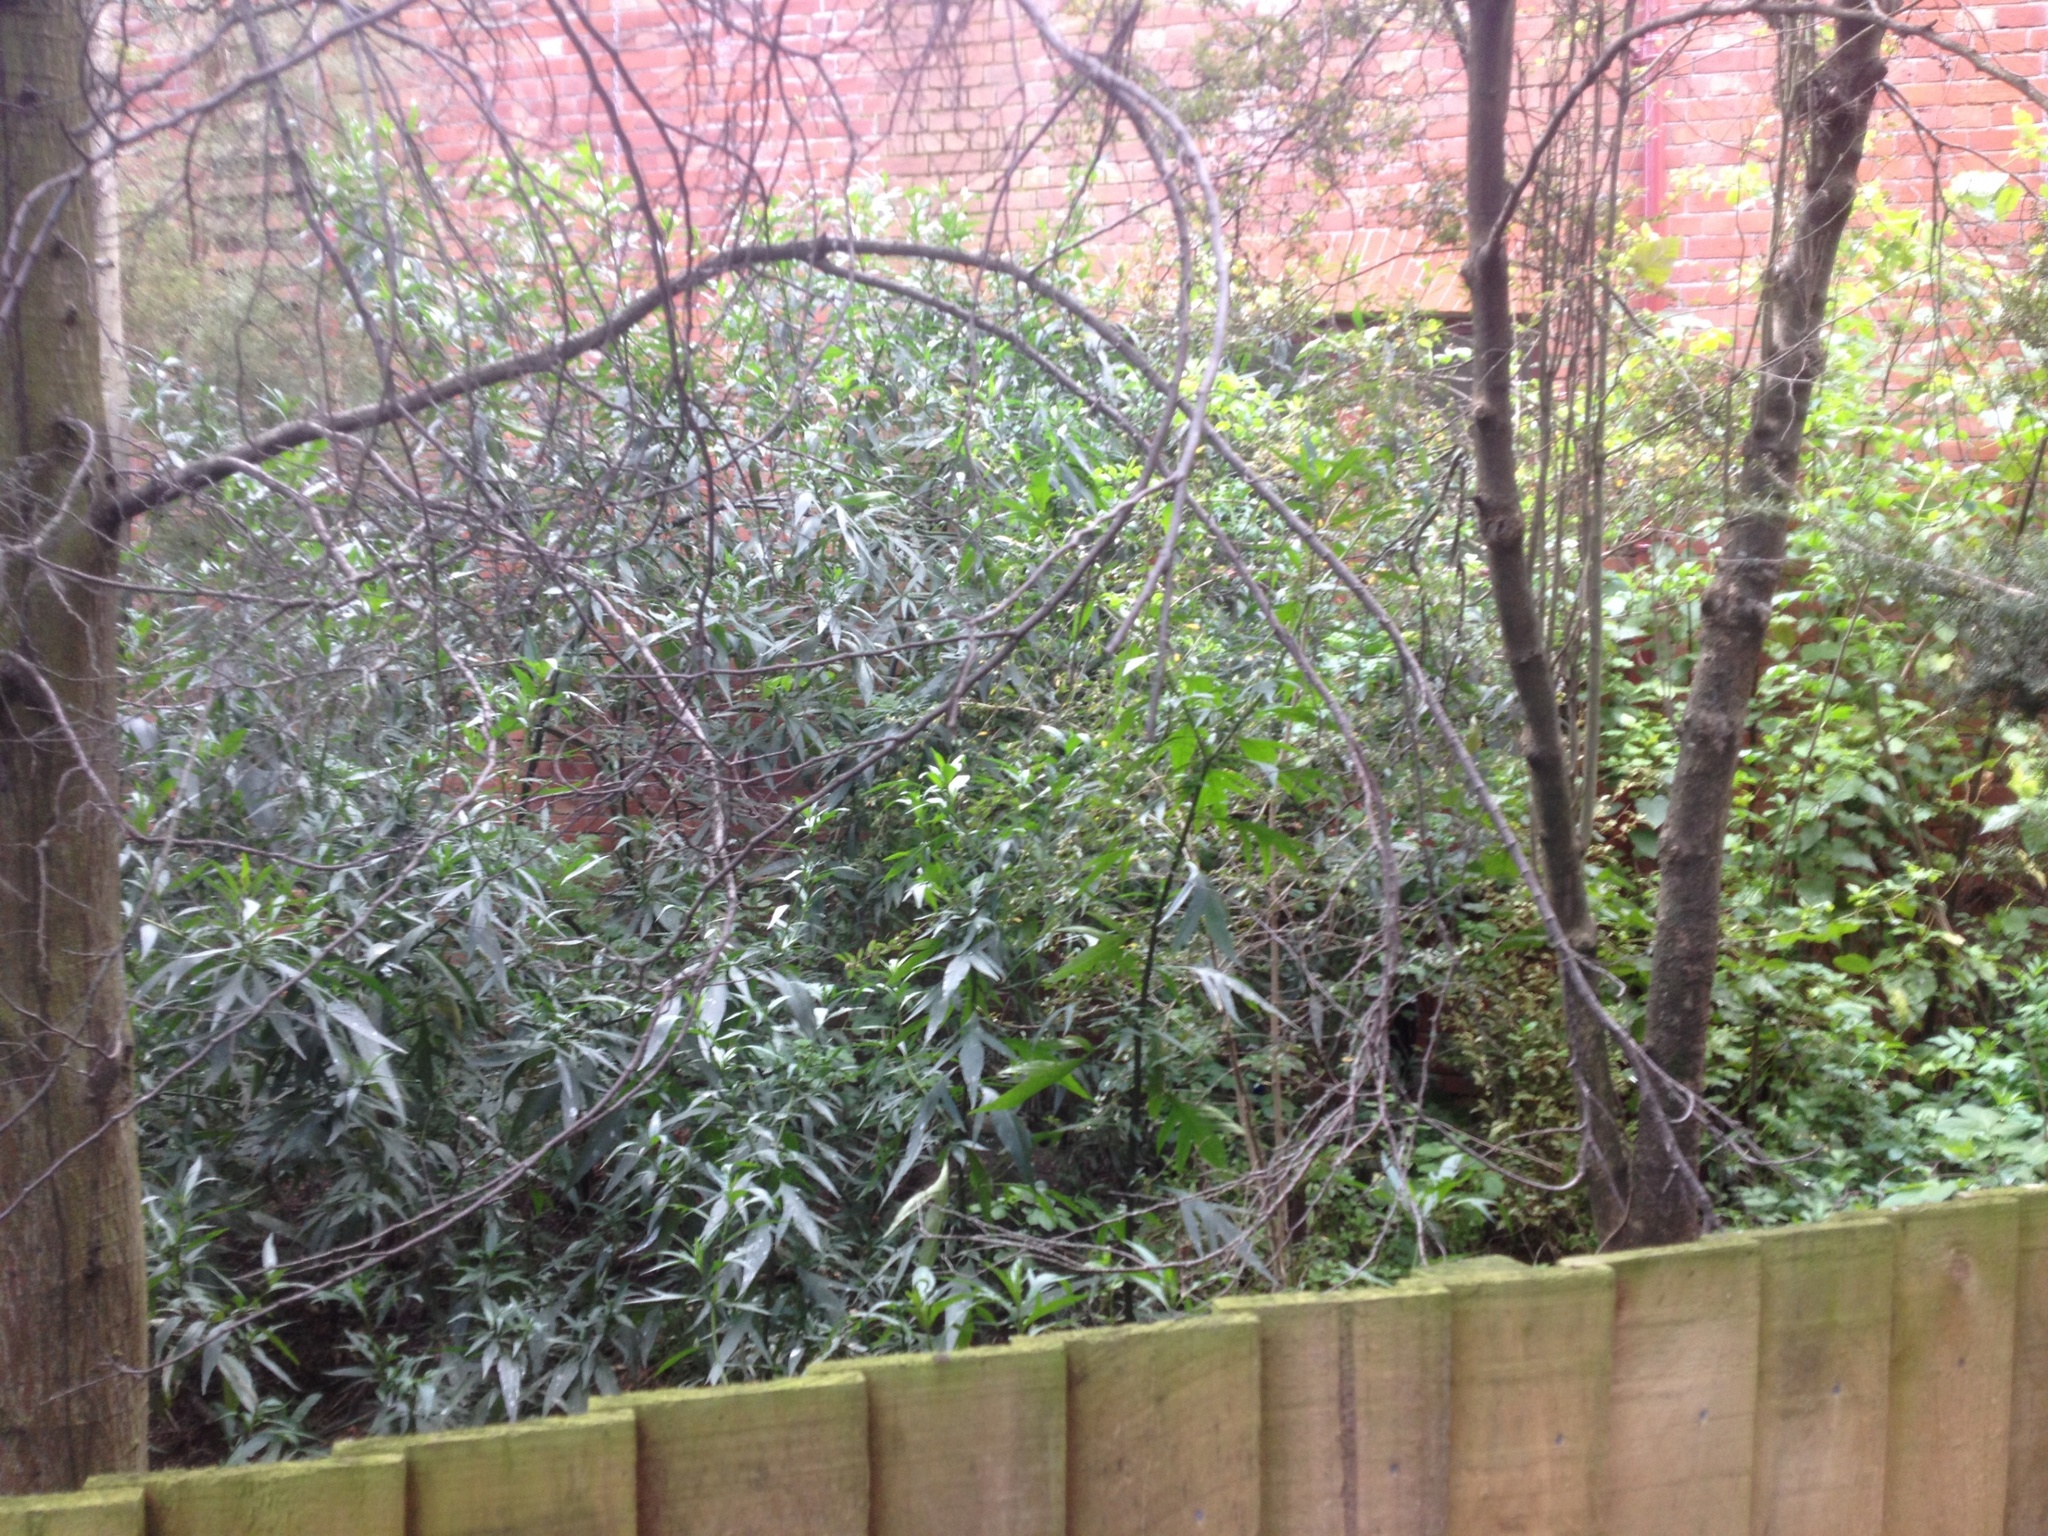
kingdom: Plantae
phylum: Tracheophyta
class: Magnoliopsida
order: Solanales
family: Solanaceae
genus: Solanum
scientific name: Solanum laciniatum
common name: Kangaroo-apple
